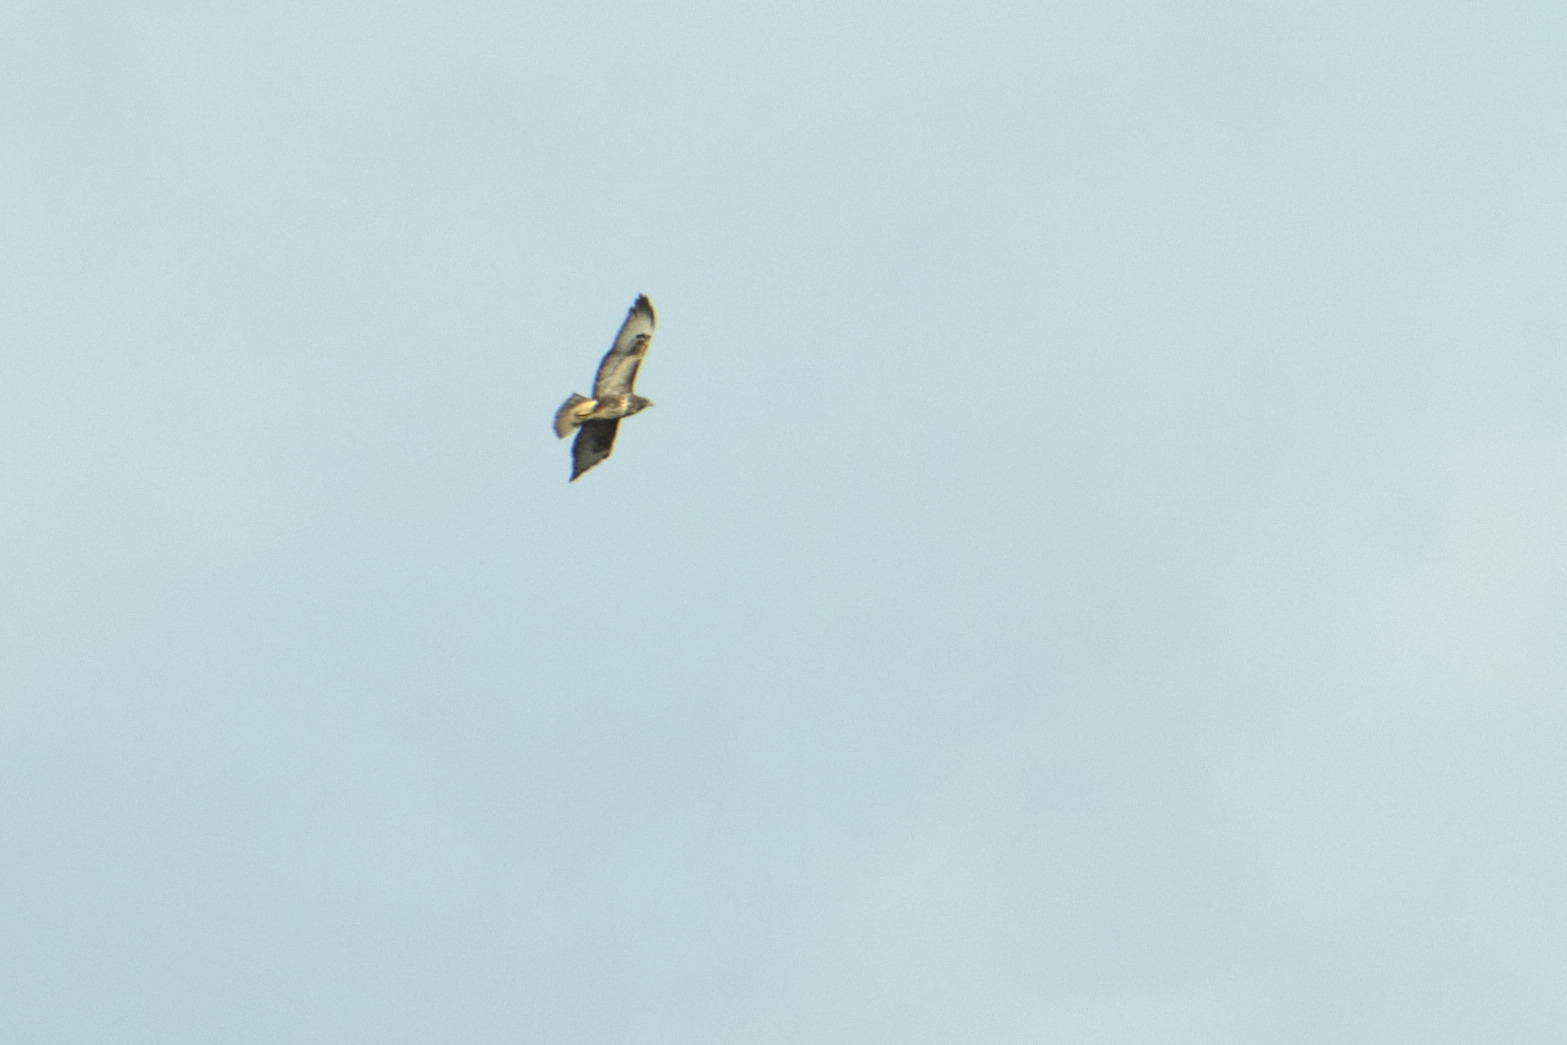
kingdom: Animalia
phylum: Chordata
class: Aves
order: Accipitriformes
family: Accipitridae
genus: Buteo
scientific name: Buteo buteo
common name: Common buzzard
